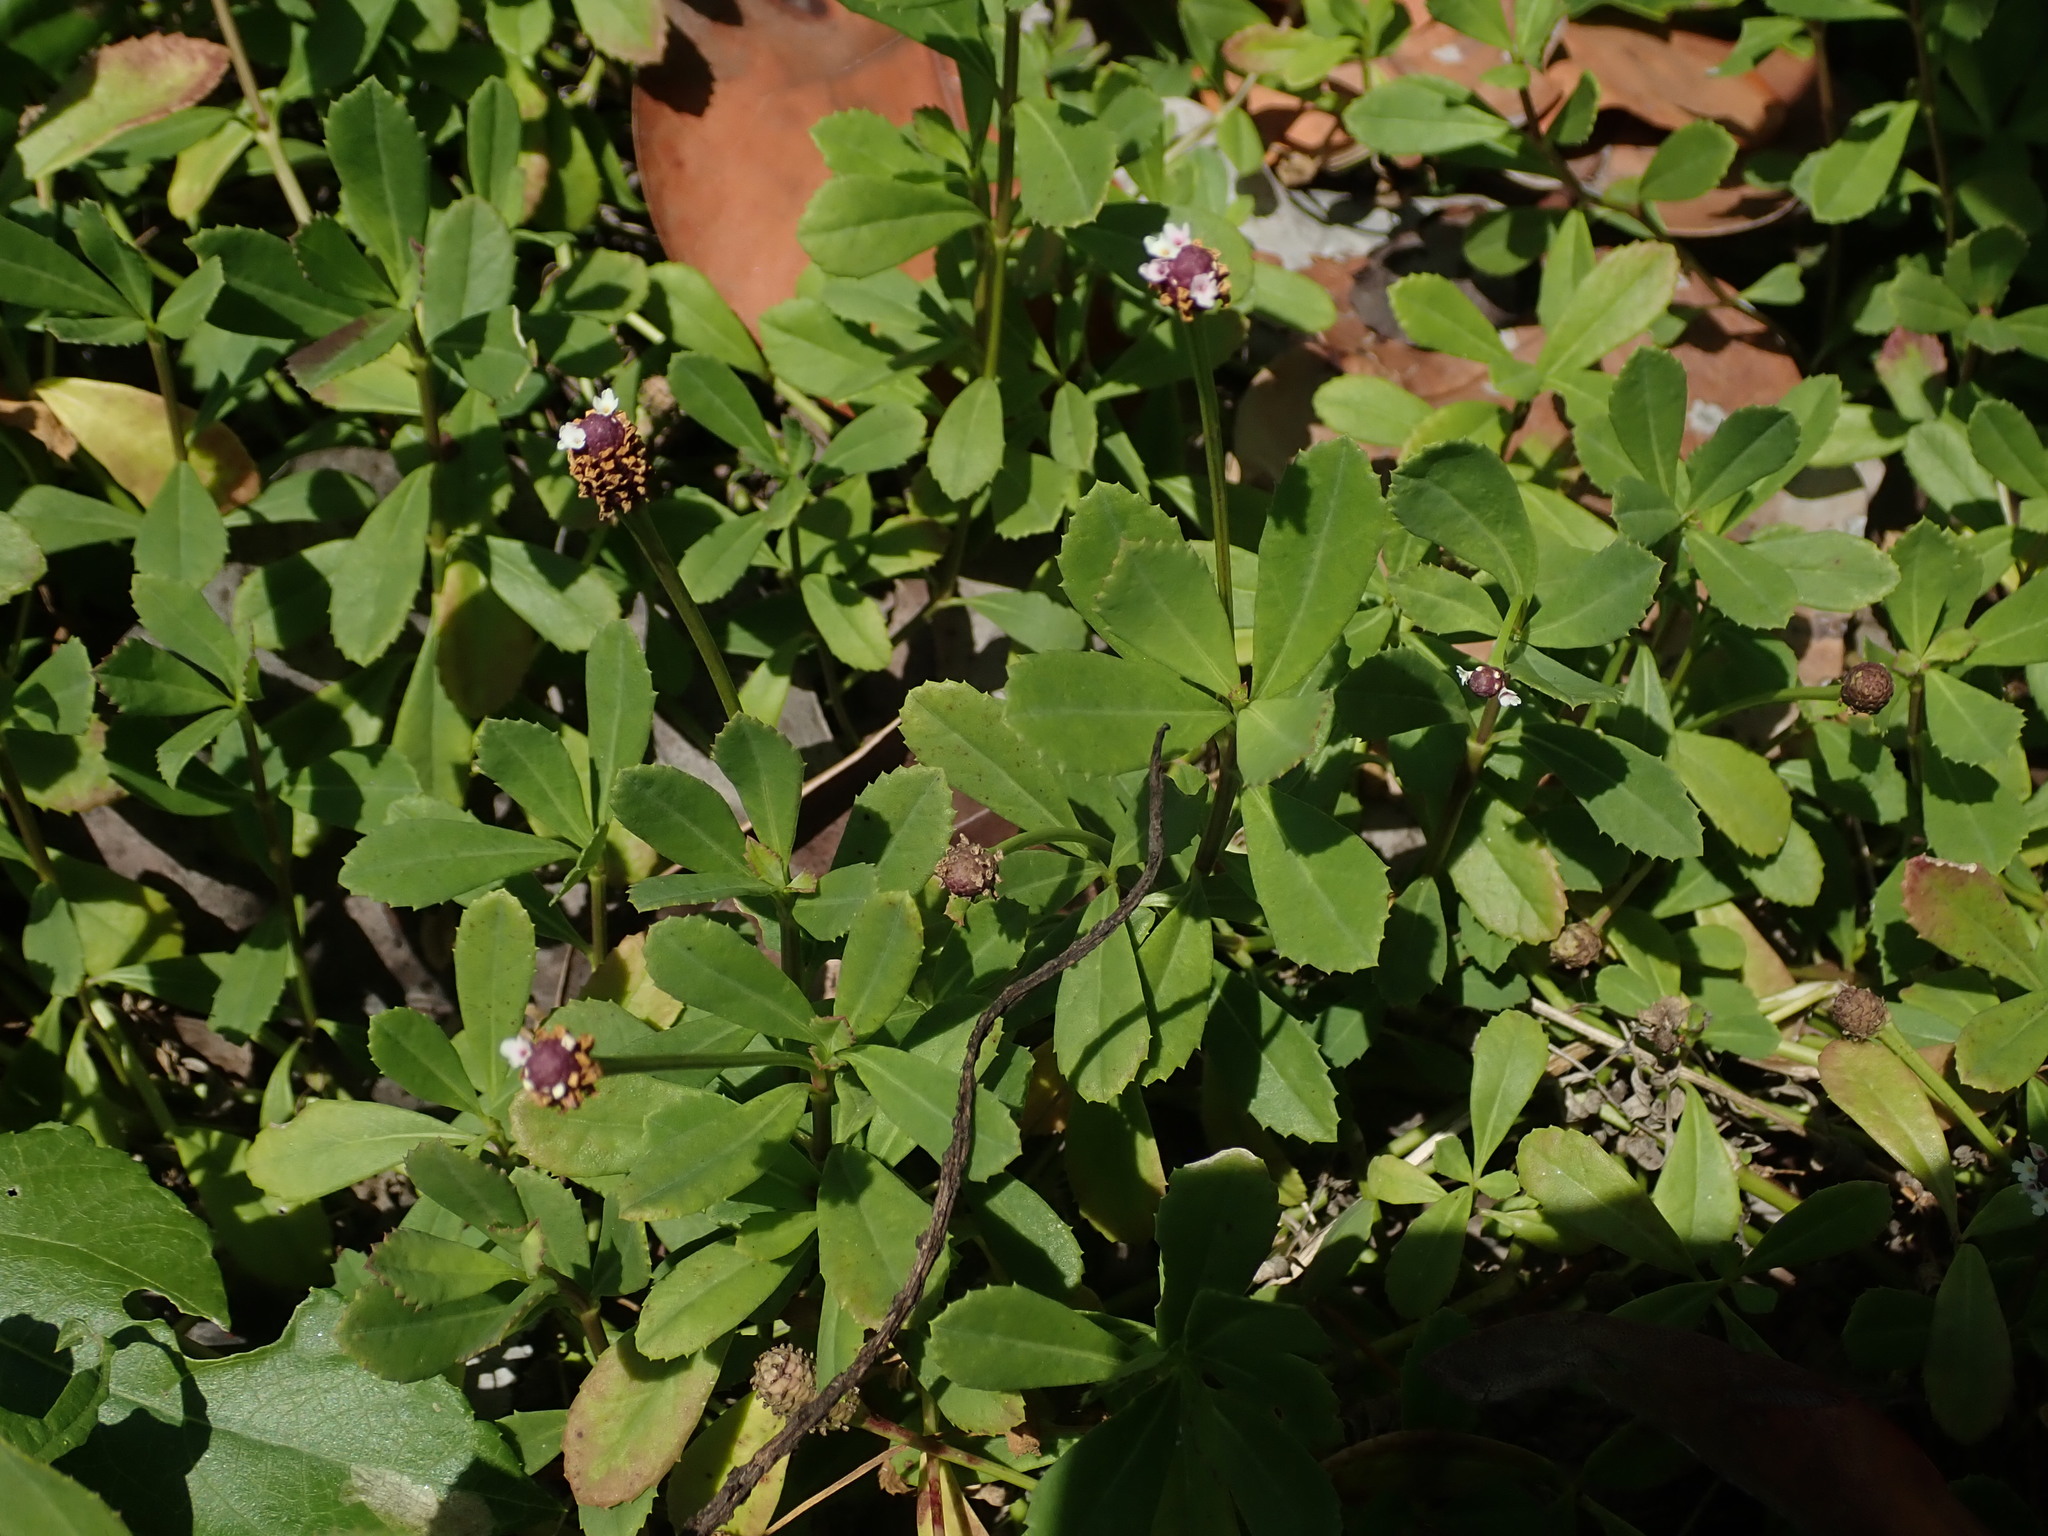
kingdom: Plantae
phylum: Tracheophyta
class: Magnoliopsida
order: Lamiales
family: Verbenaceae
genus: Phyla
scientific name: Phyla nodiflora
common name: Frogfruit
